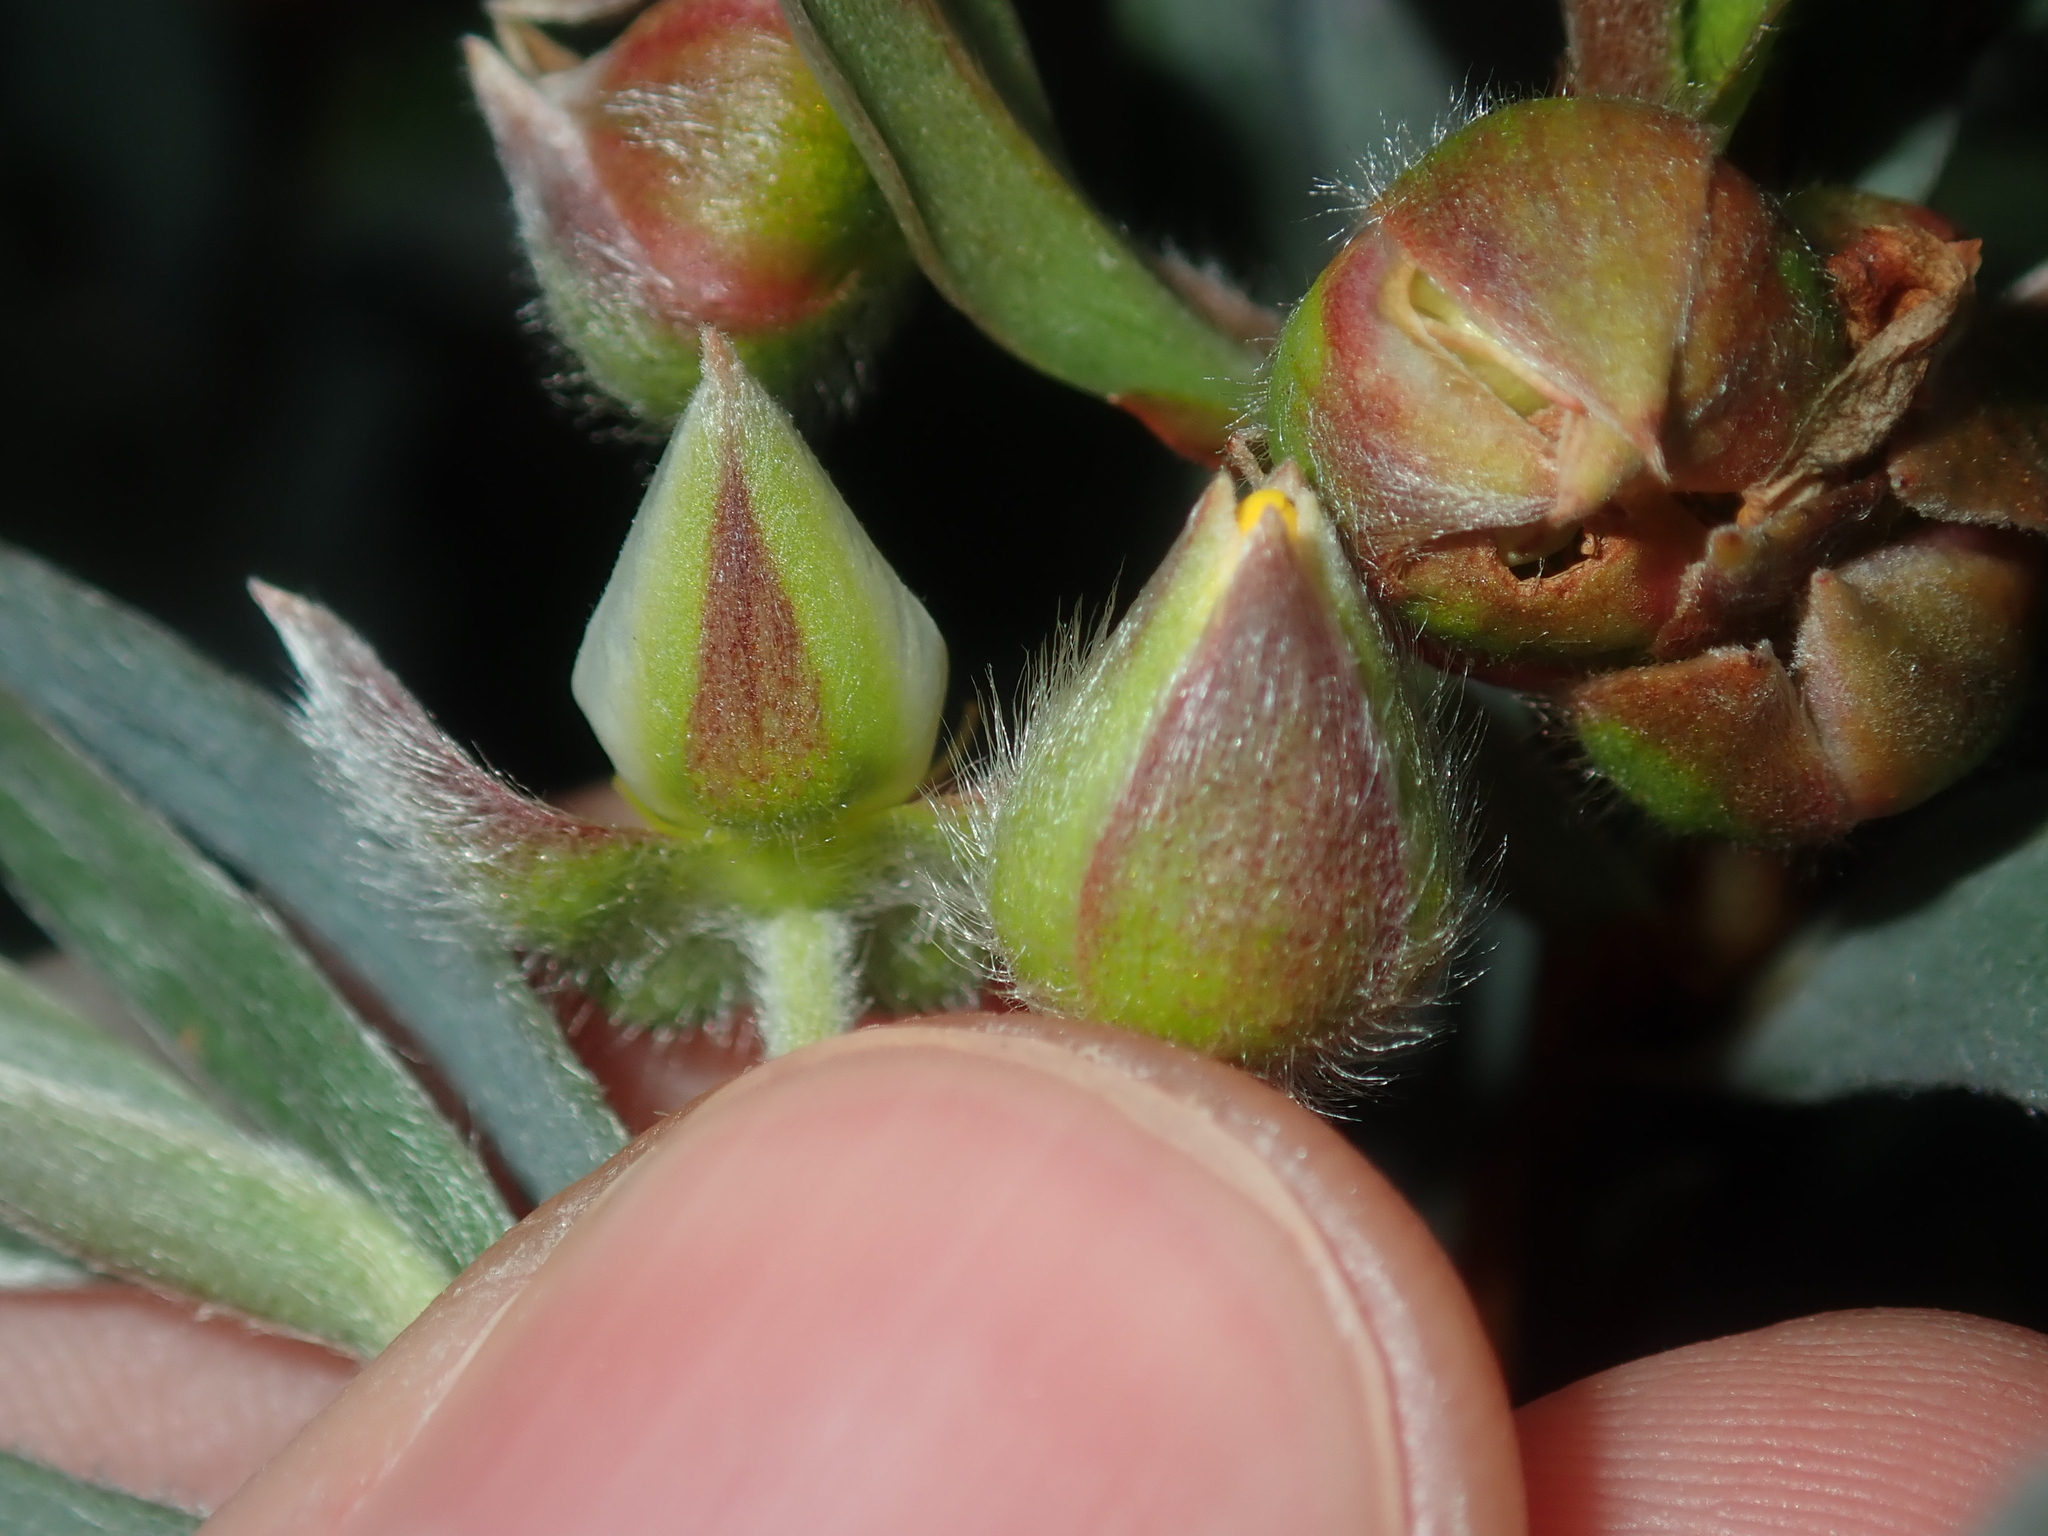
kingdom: Plantae
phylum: Tracheophyta
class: Magnoliopsida
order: Dilleniales
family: Dilleniaceae
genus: Hibbertia
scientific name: Hibbertia potentilliflora
